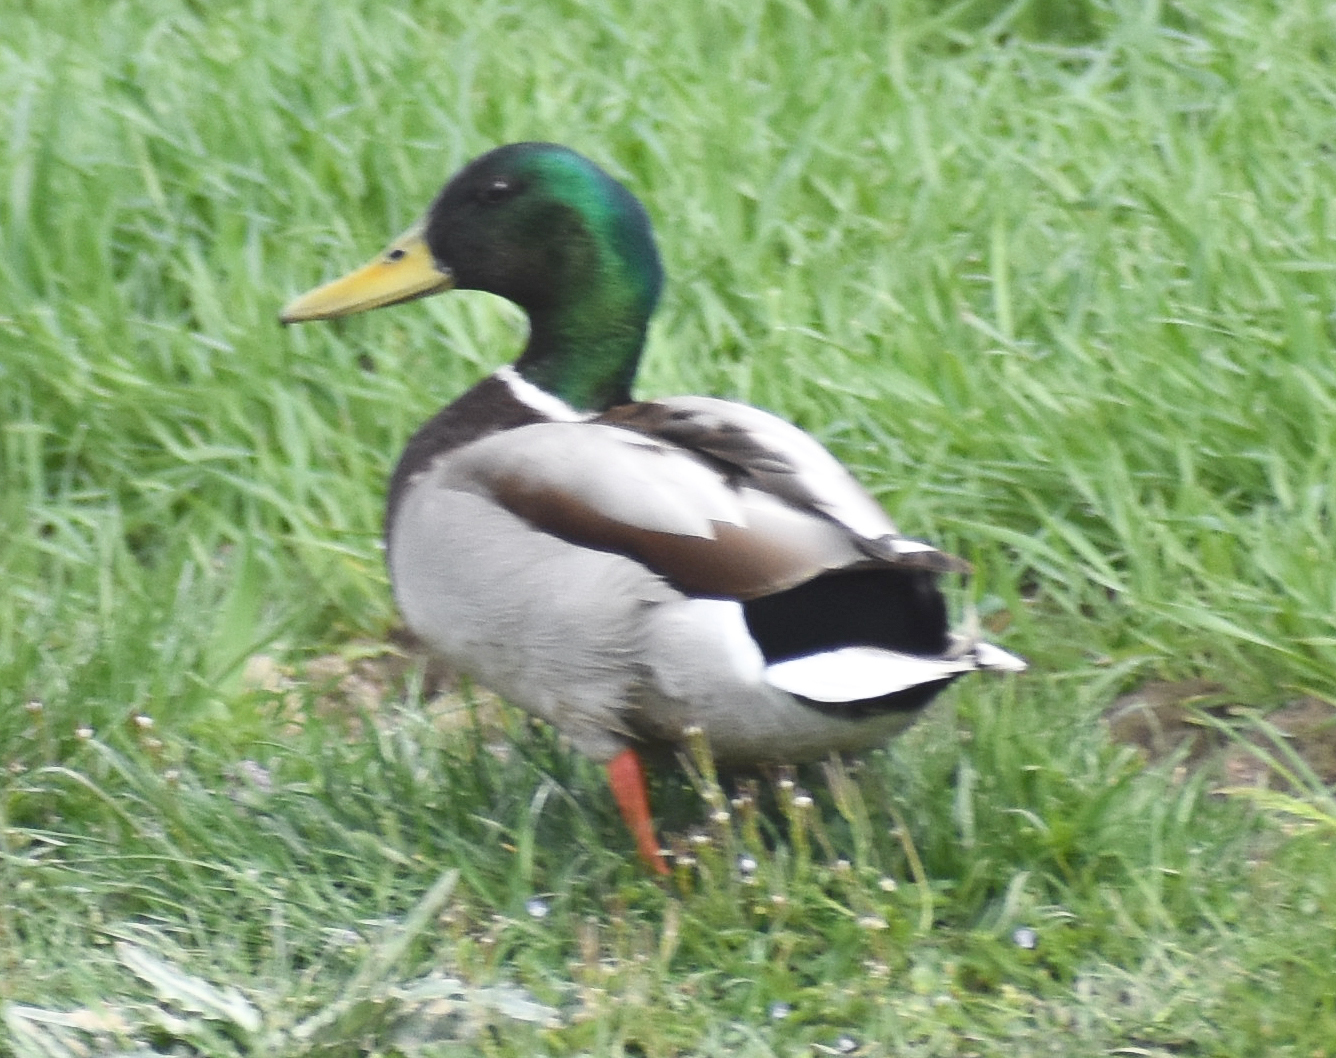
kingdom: Animalia
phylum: Chordata
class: Aves
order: Anseriformes
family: Anatidae
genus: Anas
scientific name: Anas platyrhynchos
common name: Mallard
